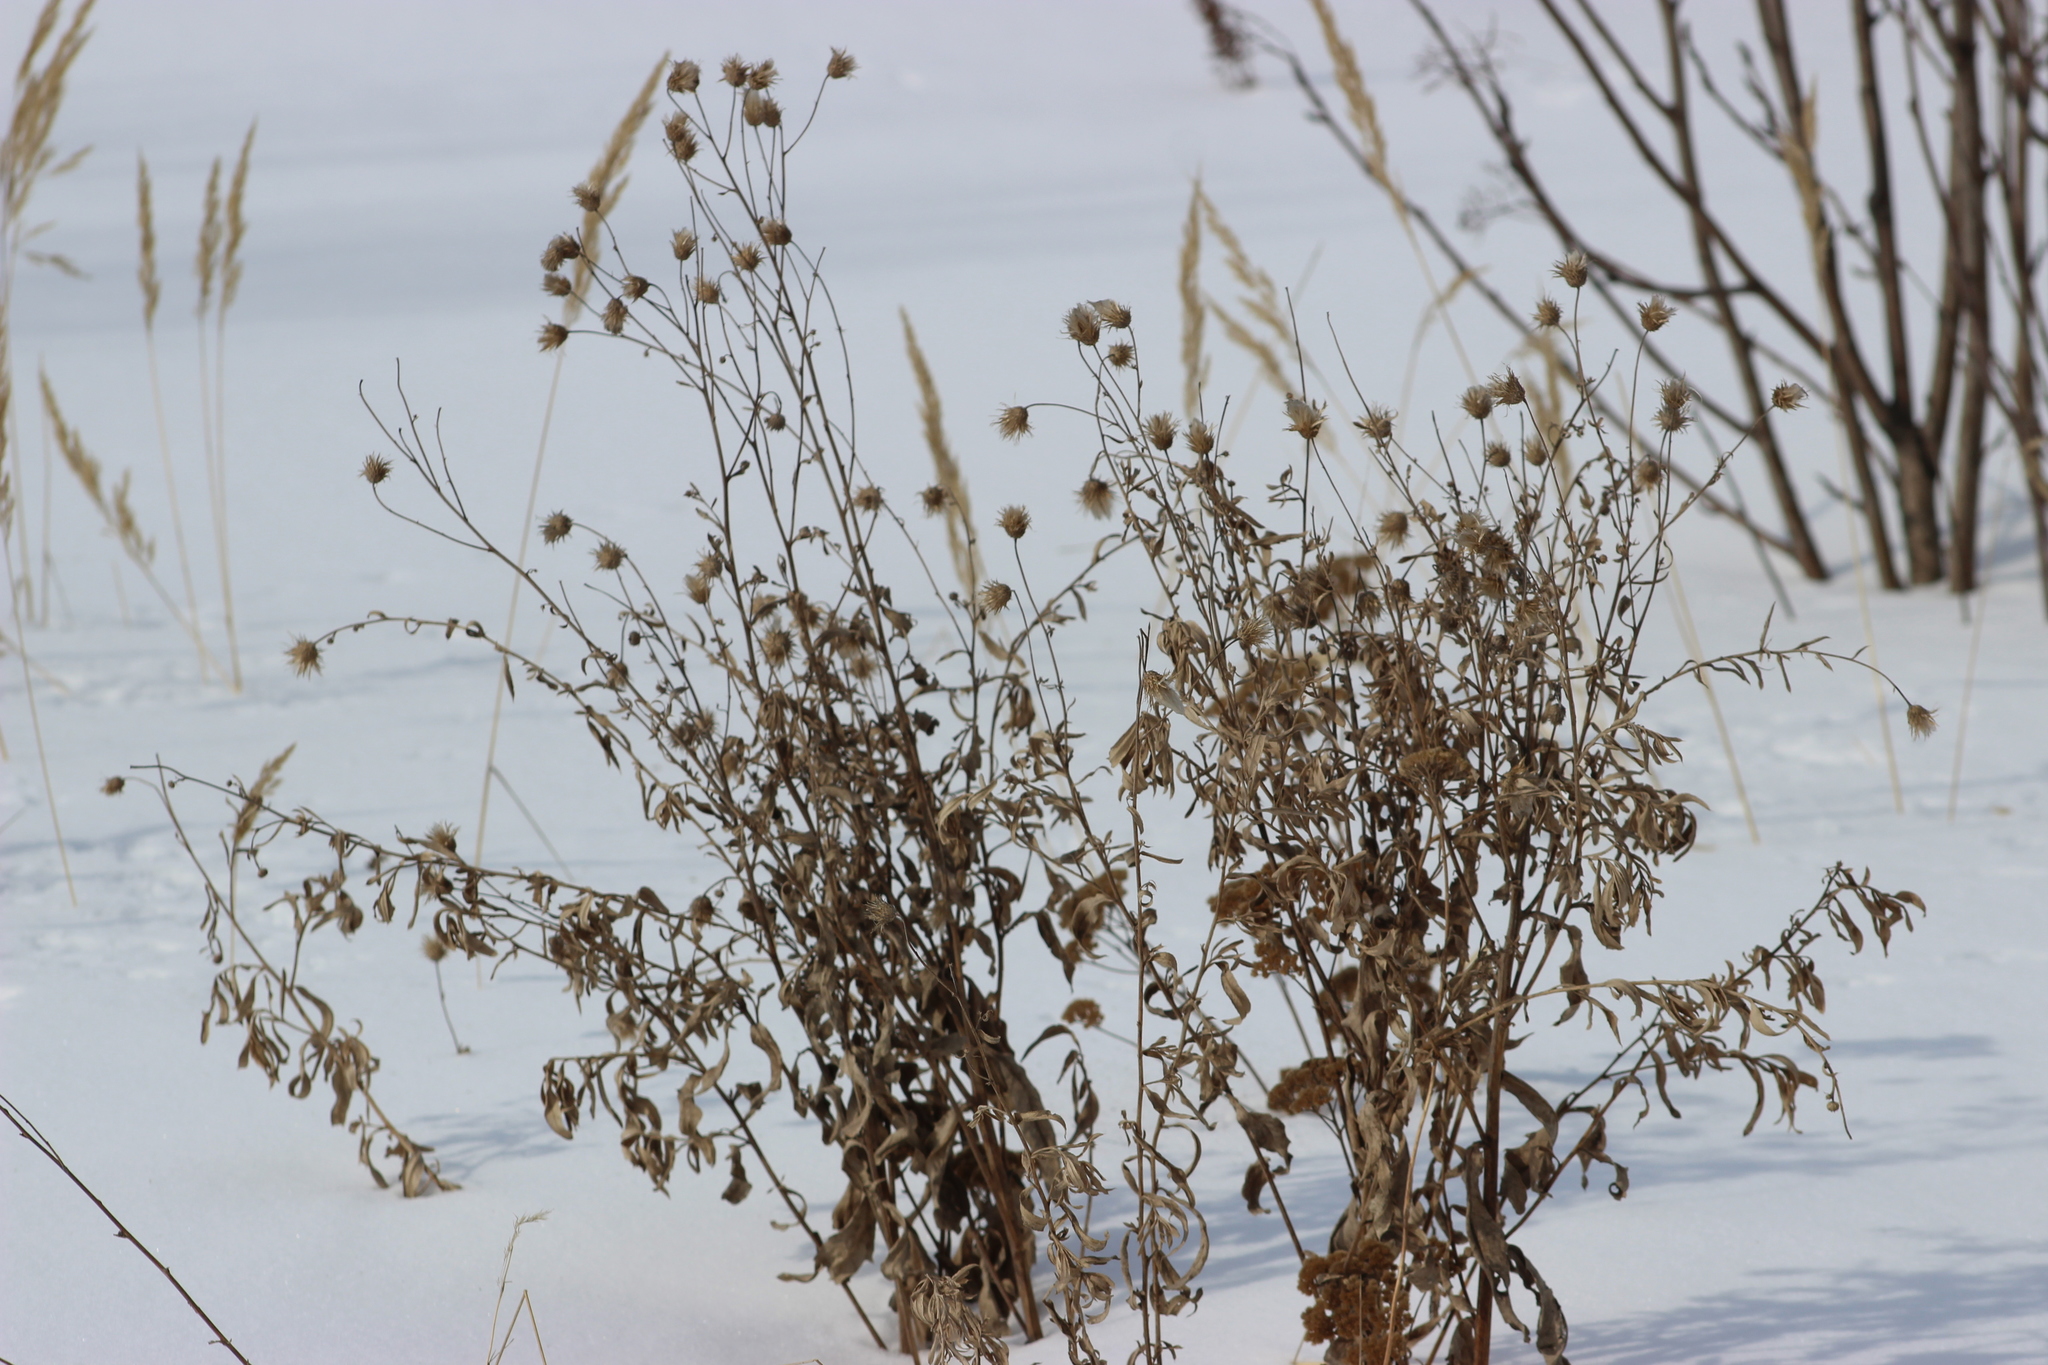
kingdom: Plantae
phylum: Tracheophyta
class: Magnoliopsida
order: Asterales
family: Asteraceae
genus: Cirsium
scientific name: Cirsium arvense
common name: Creeping thistle
